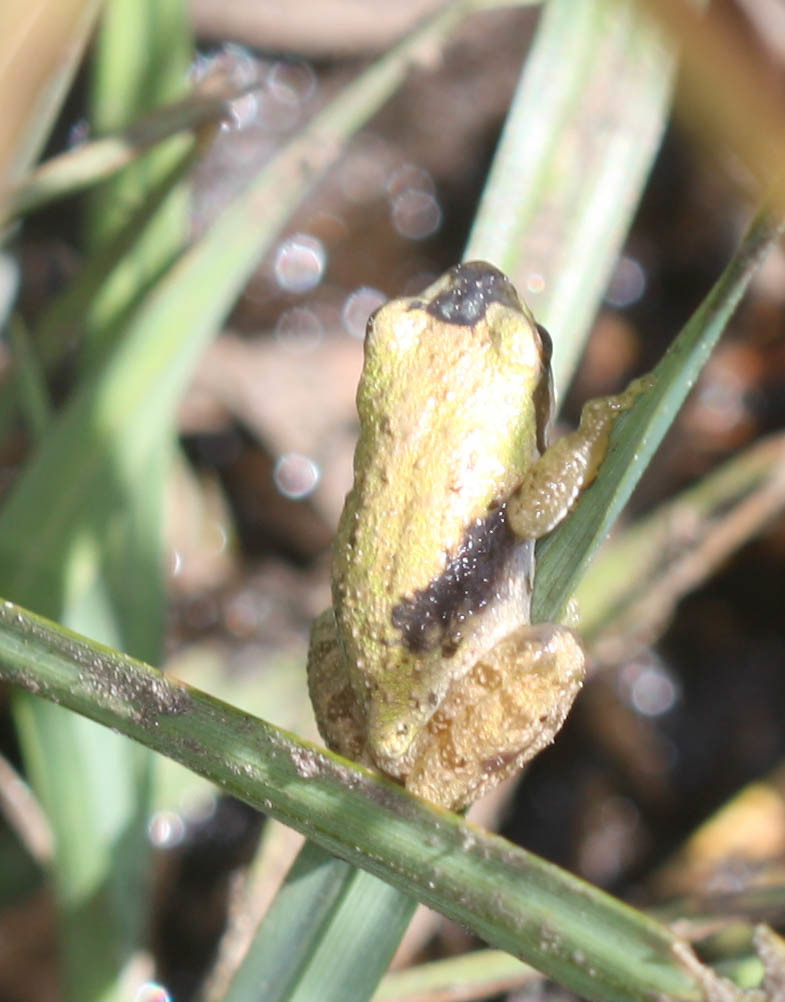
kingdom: Animalia
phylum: Chordata
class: Amphibia
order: Anura
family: Hylidae
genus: Pseudacris
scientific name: Pseudacris regilla
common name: Pacific chorus frog
